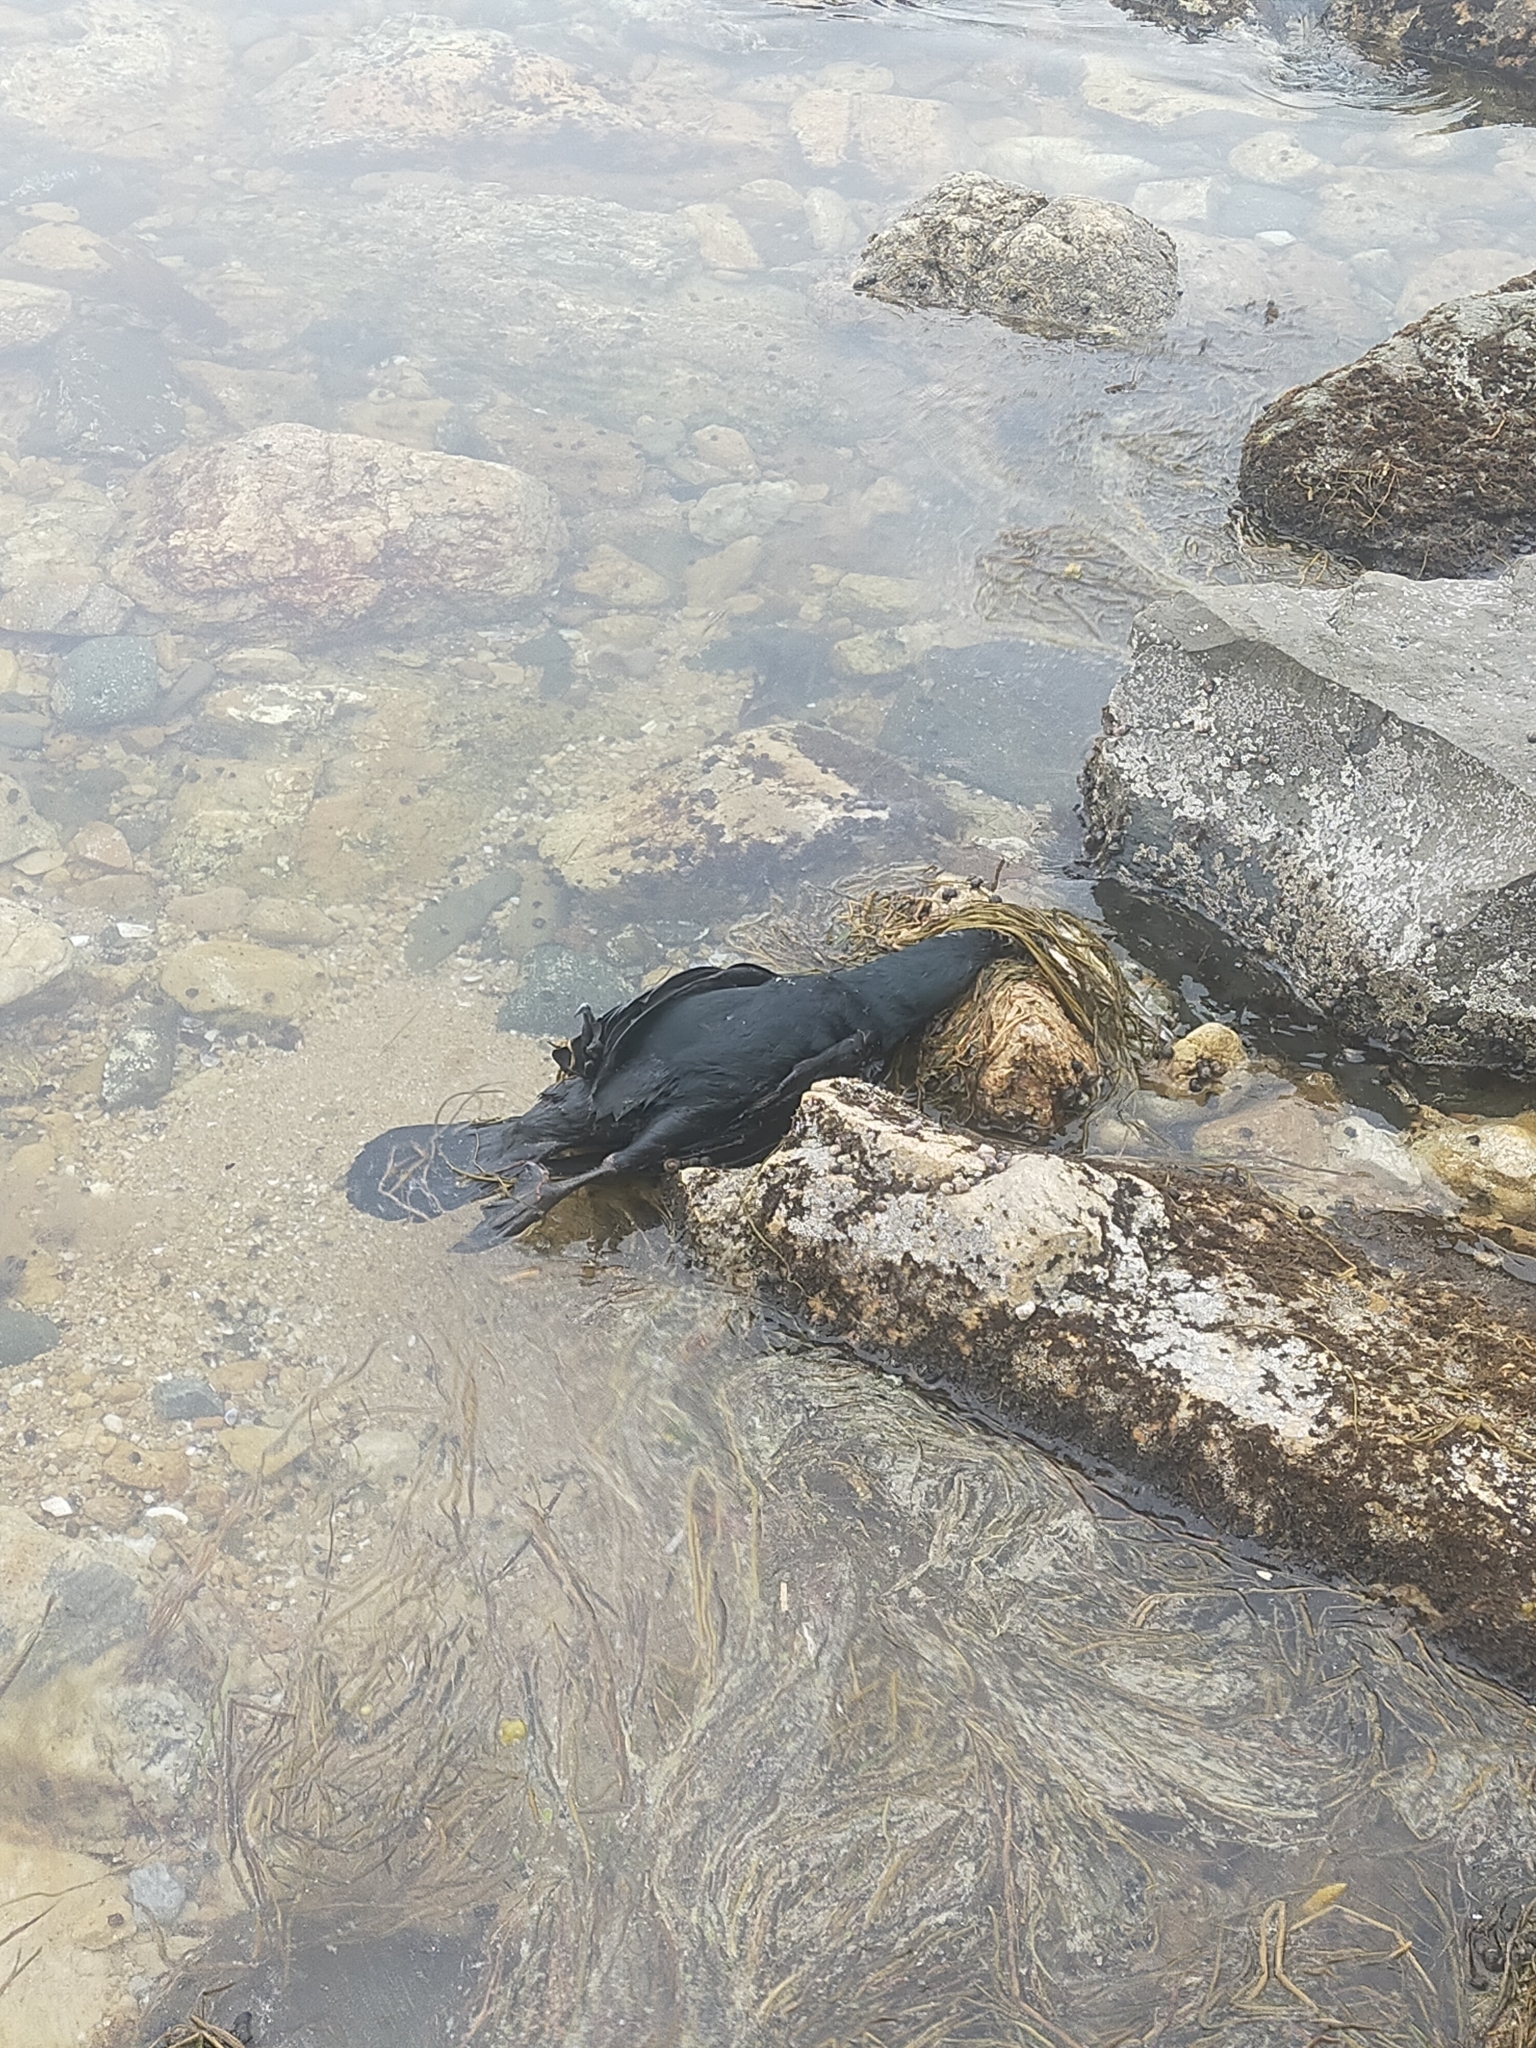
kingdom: Animalia
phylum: Chordata
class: Aves
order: Suliformes
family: Phalacrocoracidae
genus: Phalacrocorax
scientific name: Phalacrocorax pelagicus
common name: Pelagic cormorant
